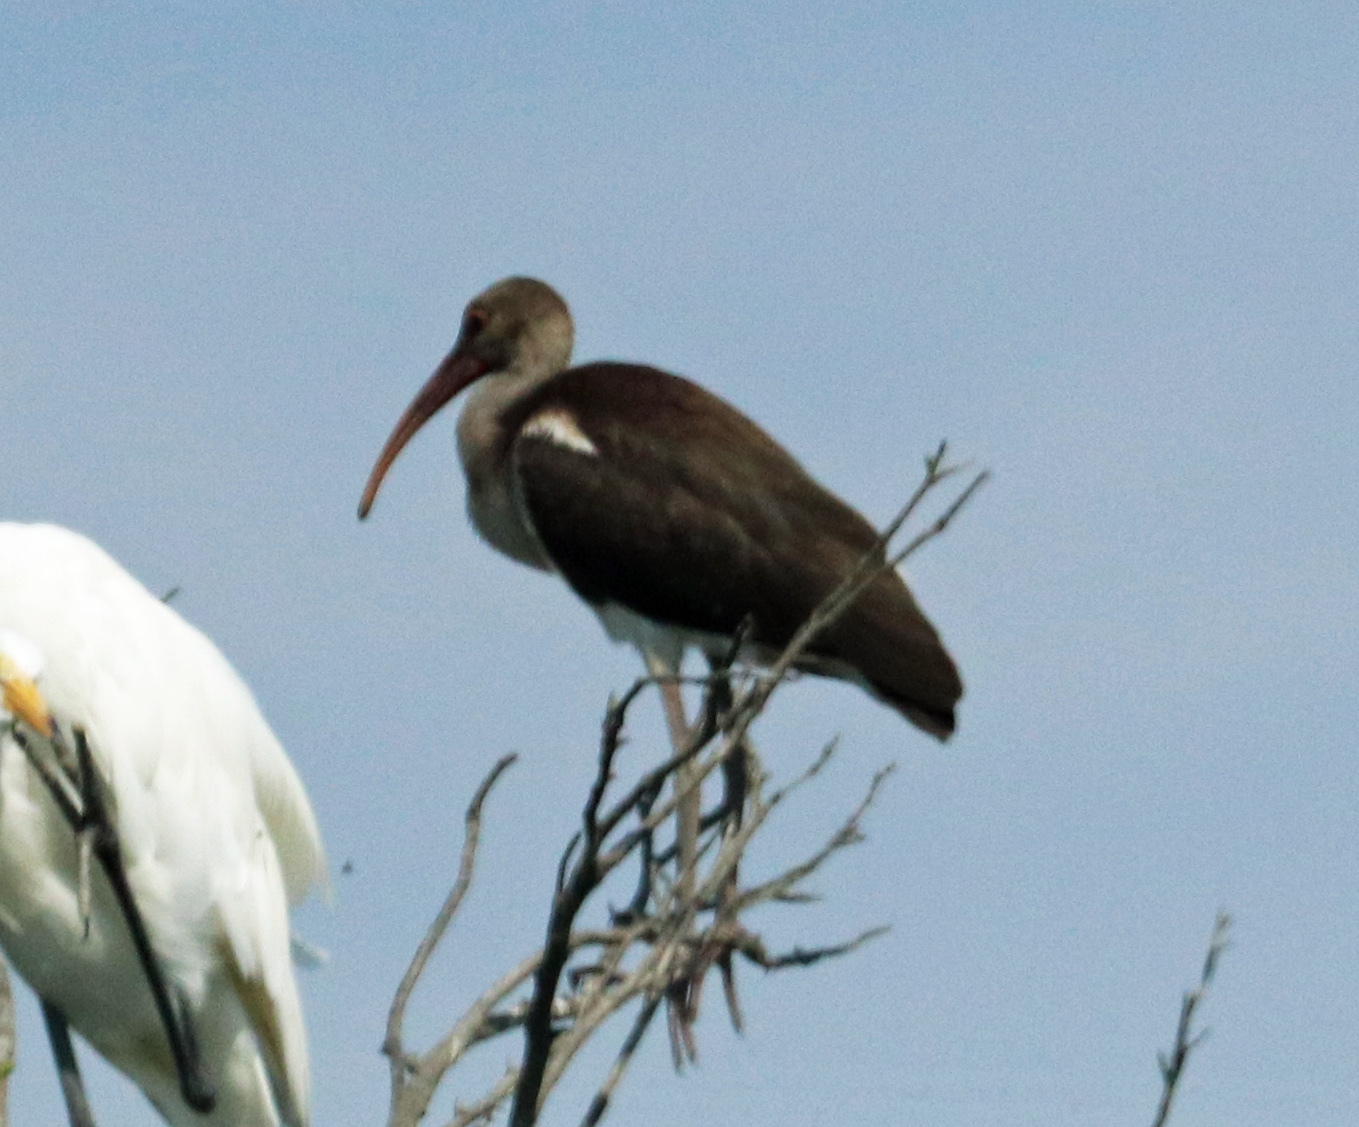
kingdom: Animalia
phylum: Chordata
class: Aves
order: Pelecaniformes
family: Threskiornithidae
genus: Eudocimus
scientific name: Eudocimus albus
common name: White ibis
